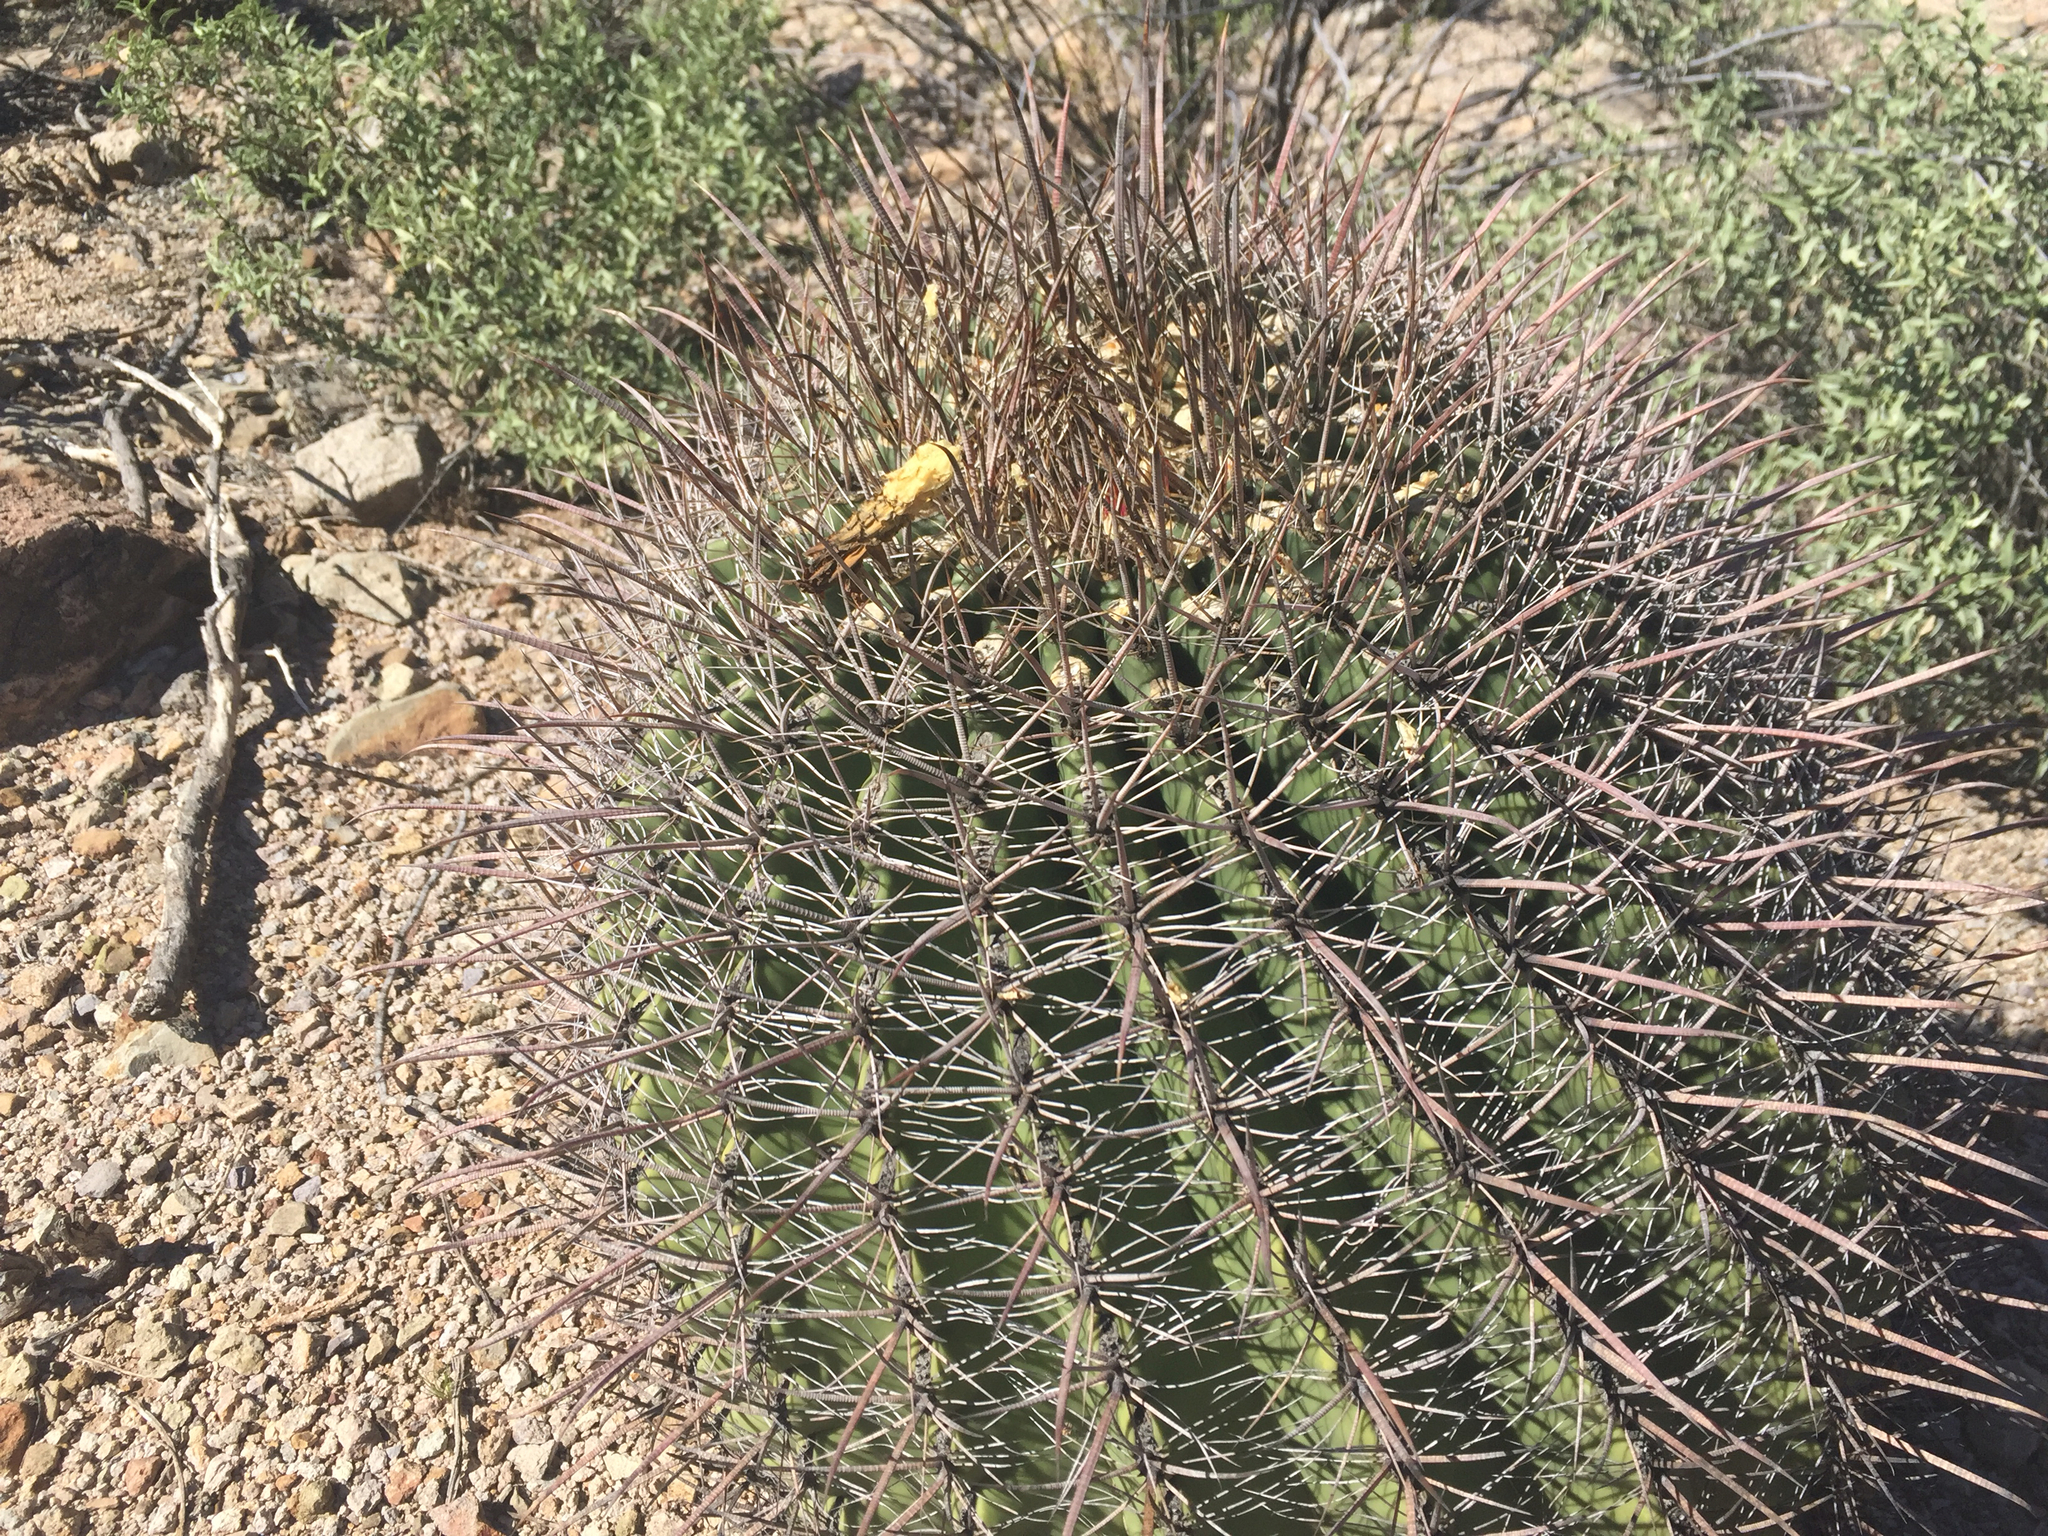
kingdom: Plantae
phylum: Tracheophyta
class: Magnoliopsida
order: Caryophyllales
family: Cactaceae
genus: Ferocactus
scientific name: Ferocactus wislizeni
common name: Candy barrel cactus
